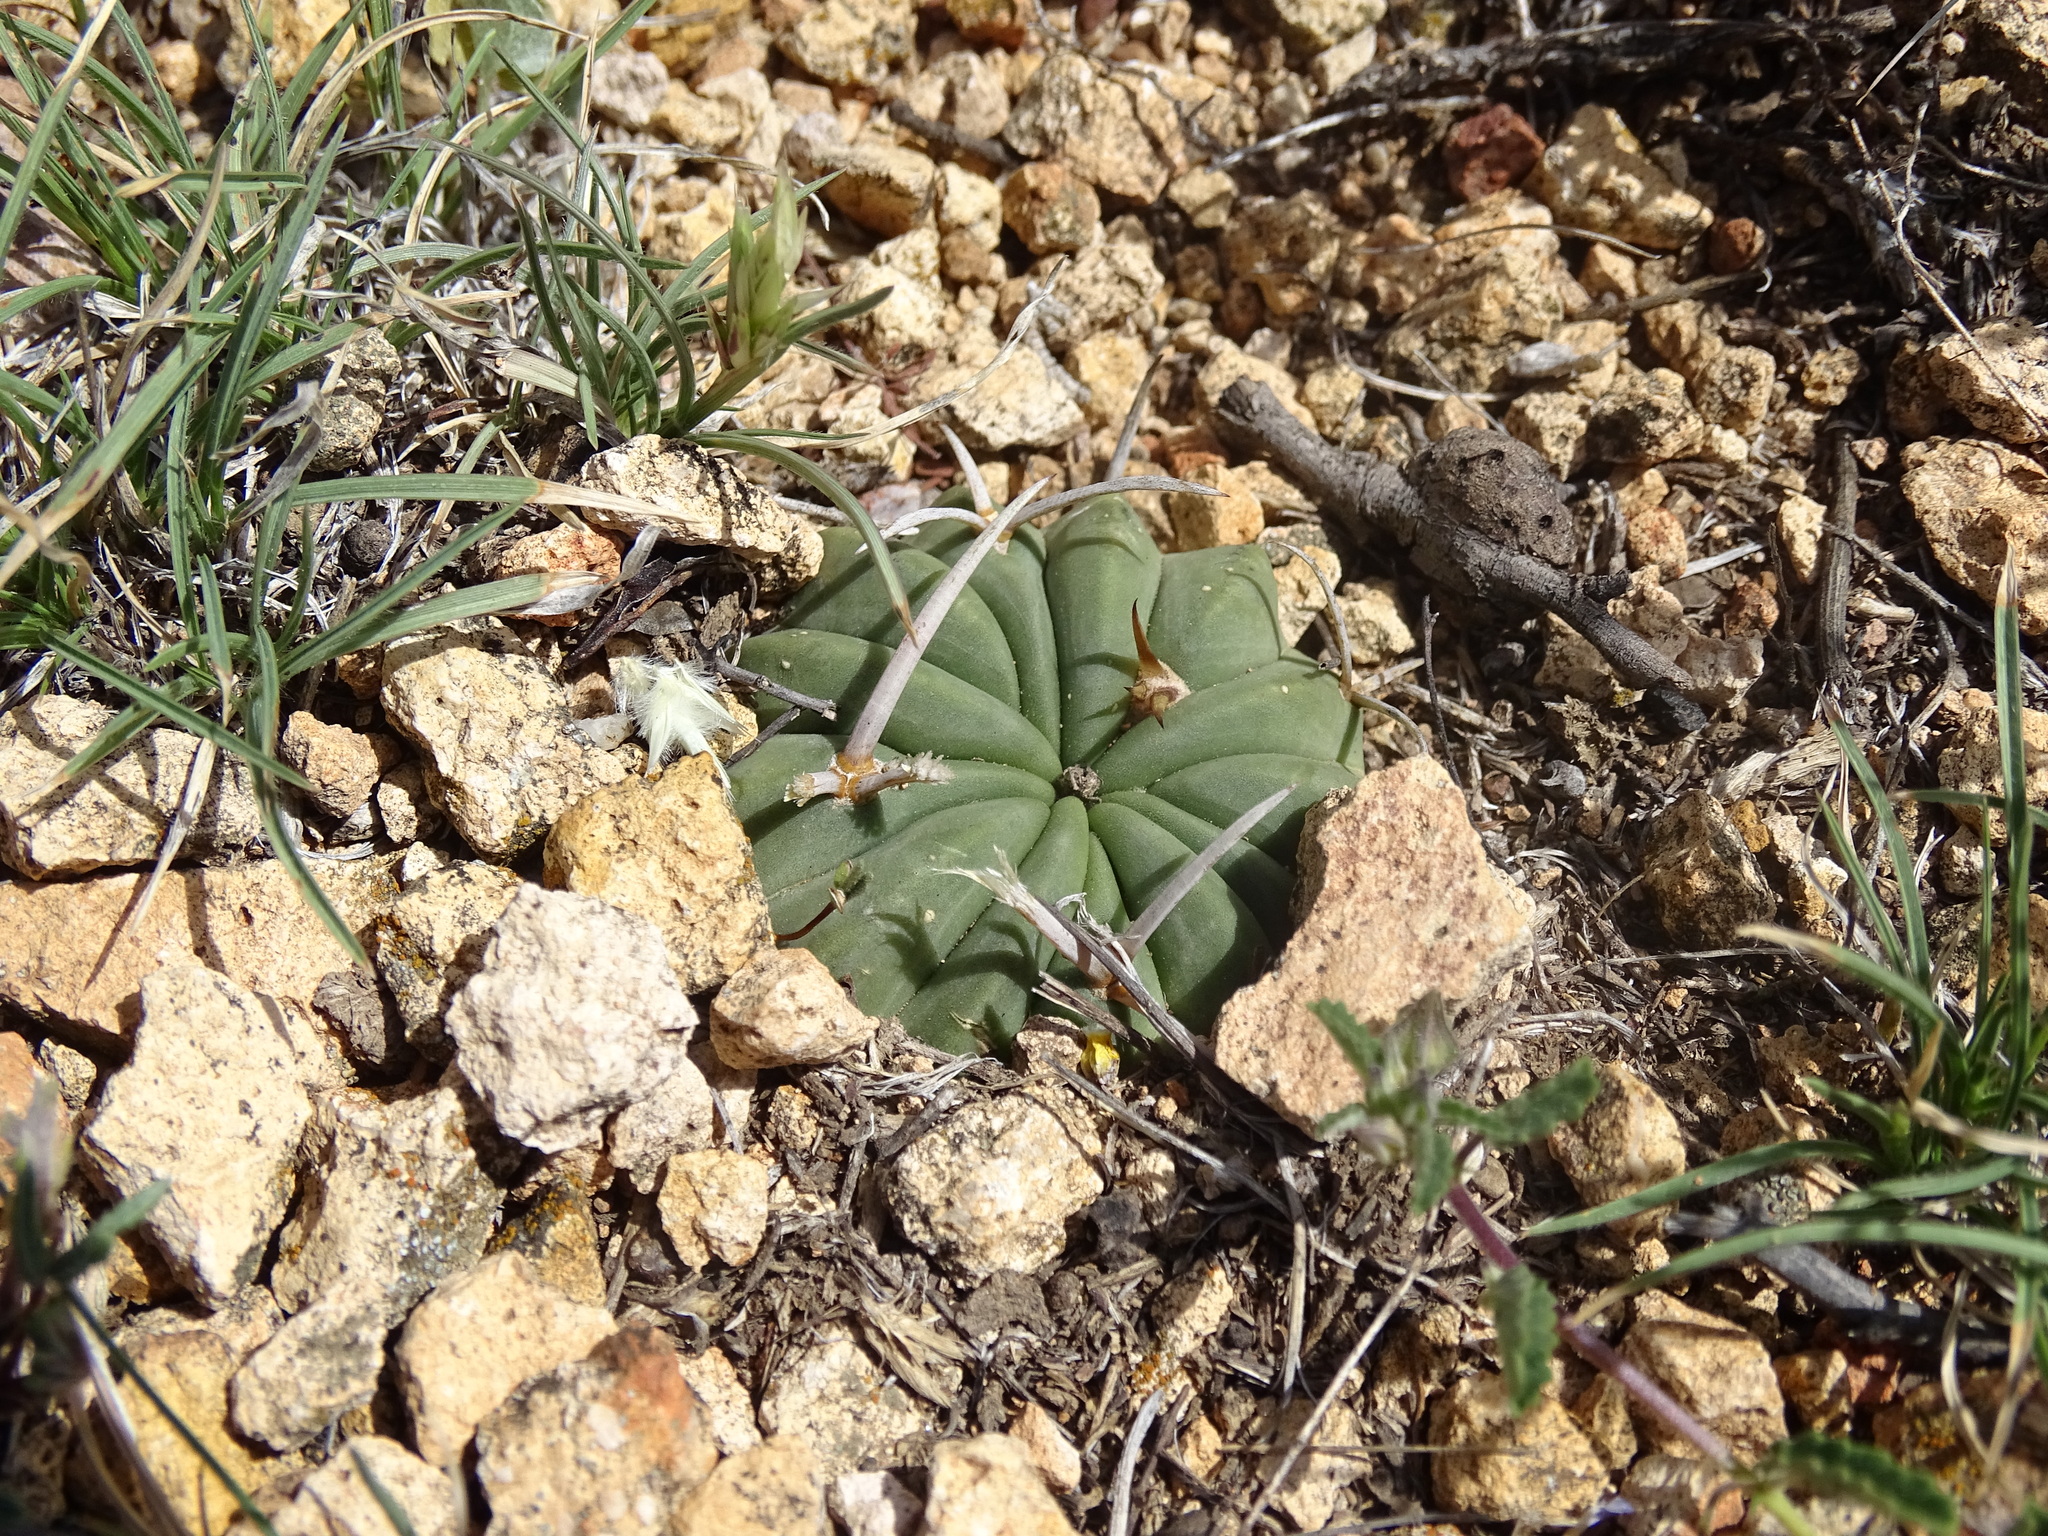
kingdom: Plantae
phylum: Tracheophyta
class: Magnoliopsida
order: Caryophyllales
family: Cactaceae
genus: Stenocactus
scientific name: Stenocactus coptonogonus
